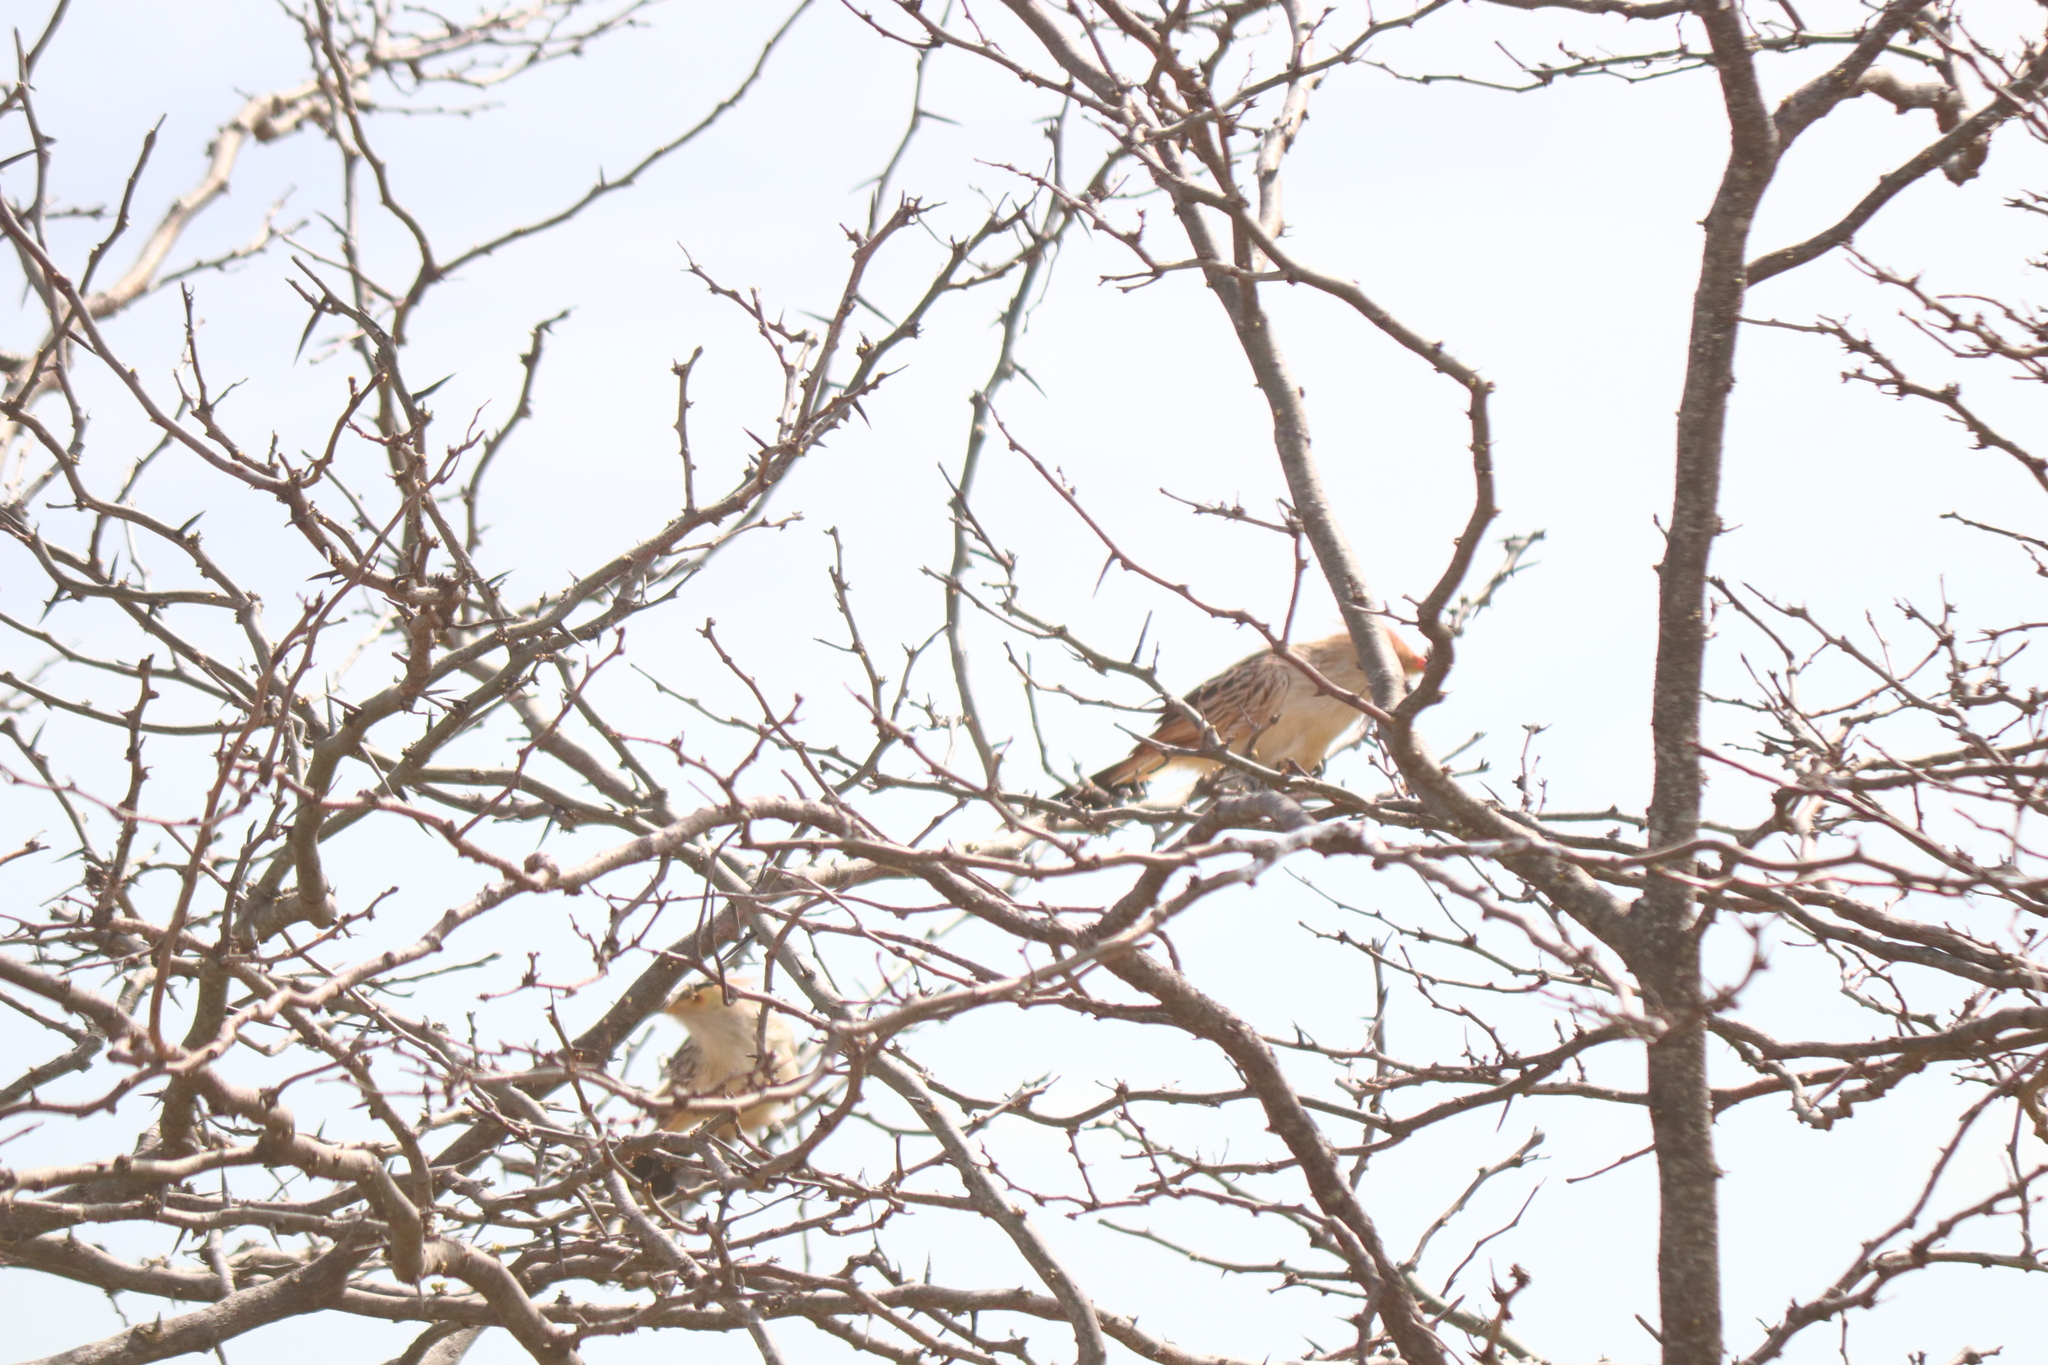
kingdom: Animalia
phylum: Chordata
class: Aves
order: Cuculiformes
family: Cuculidae
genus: Guira
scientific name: Guira guira
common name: Guira cuckoo
